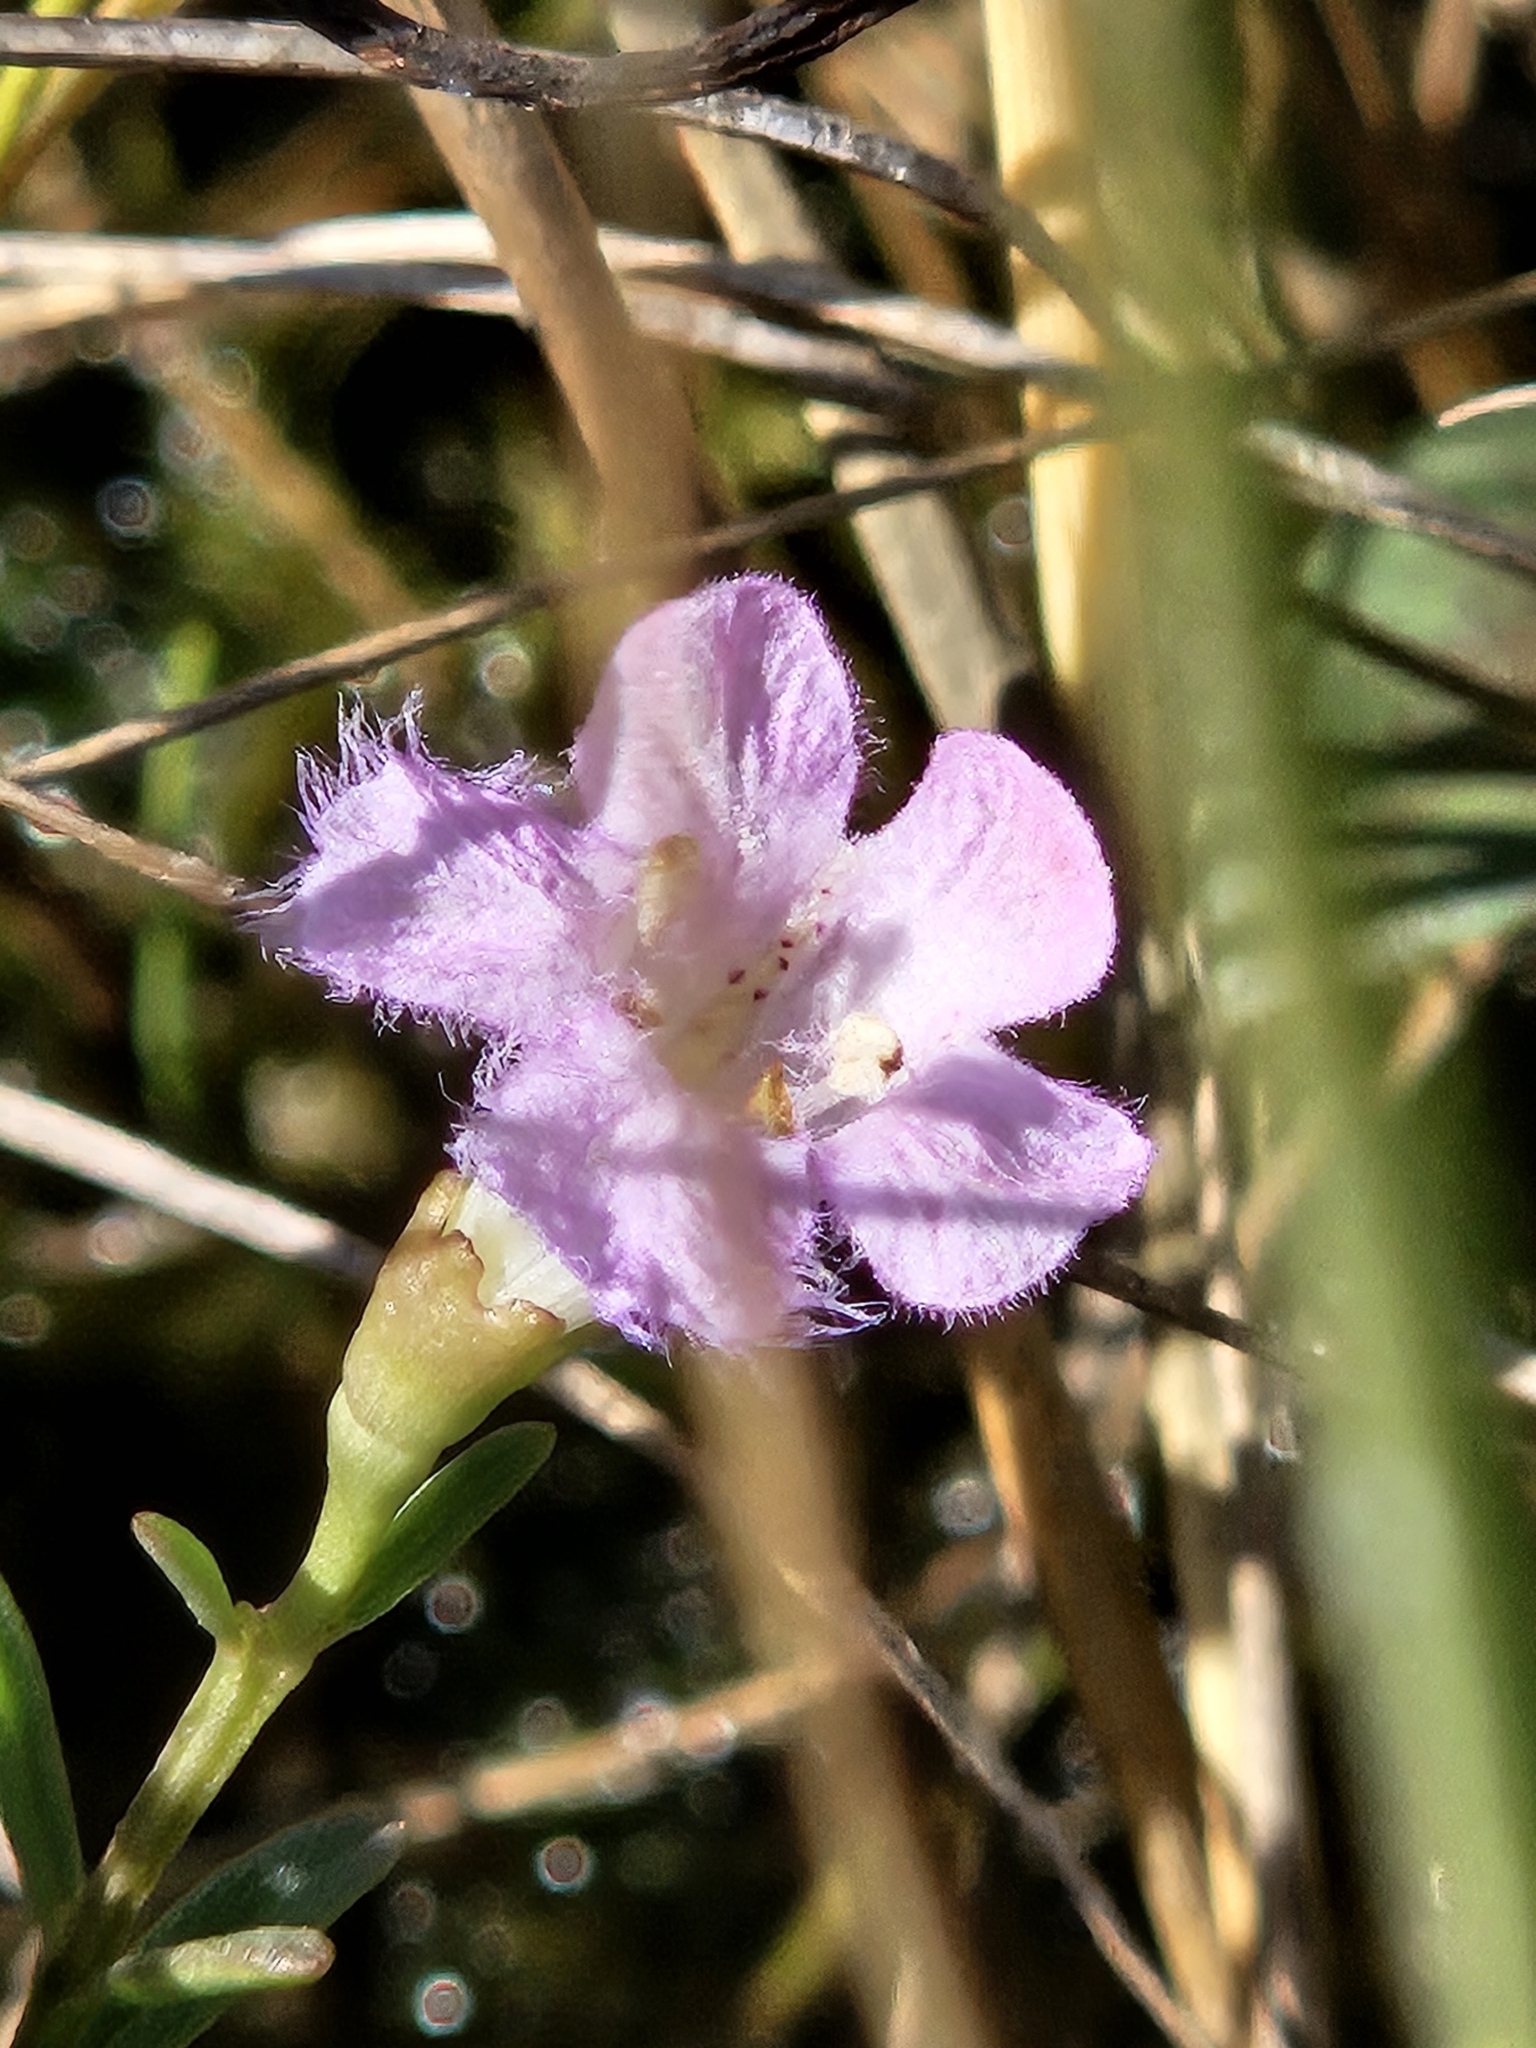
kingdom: Plantae
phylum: Tracheophyta
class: Magnoliopsida
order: Lamiales
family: Orobanchaceae
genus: Agalinis
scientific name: Agalinis maritima
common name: Saltmarsh agalinis
